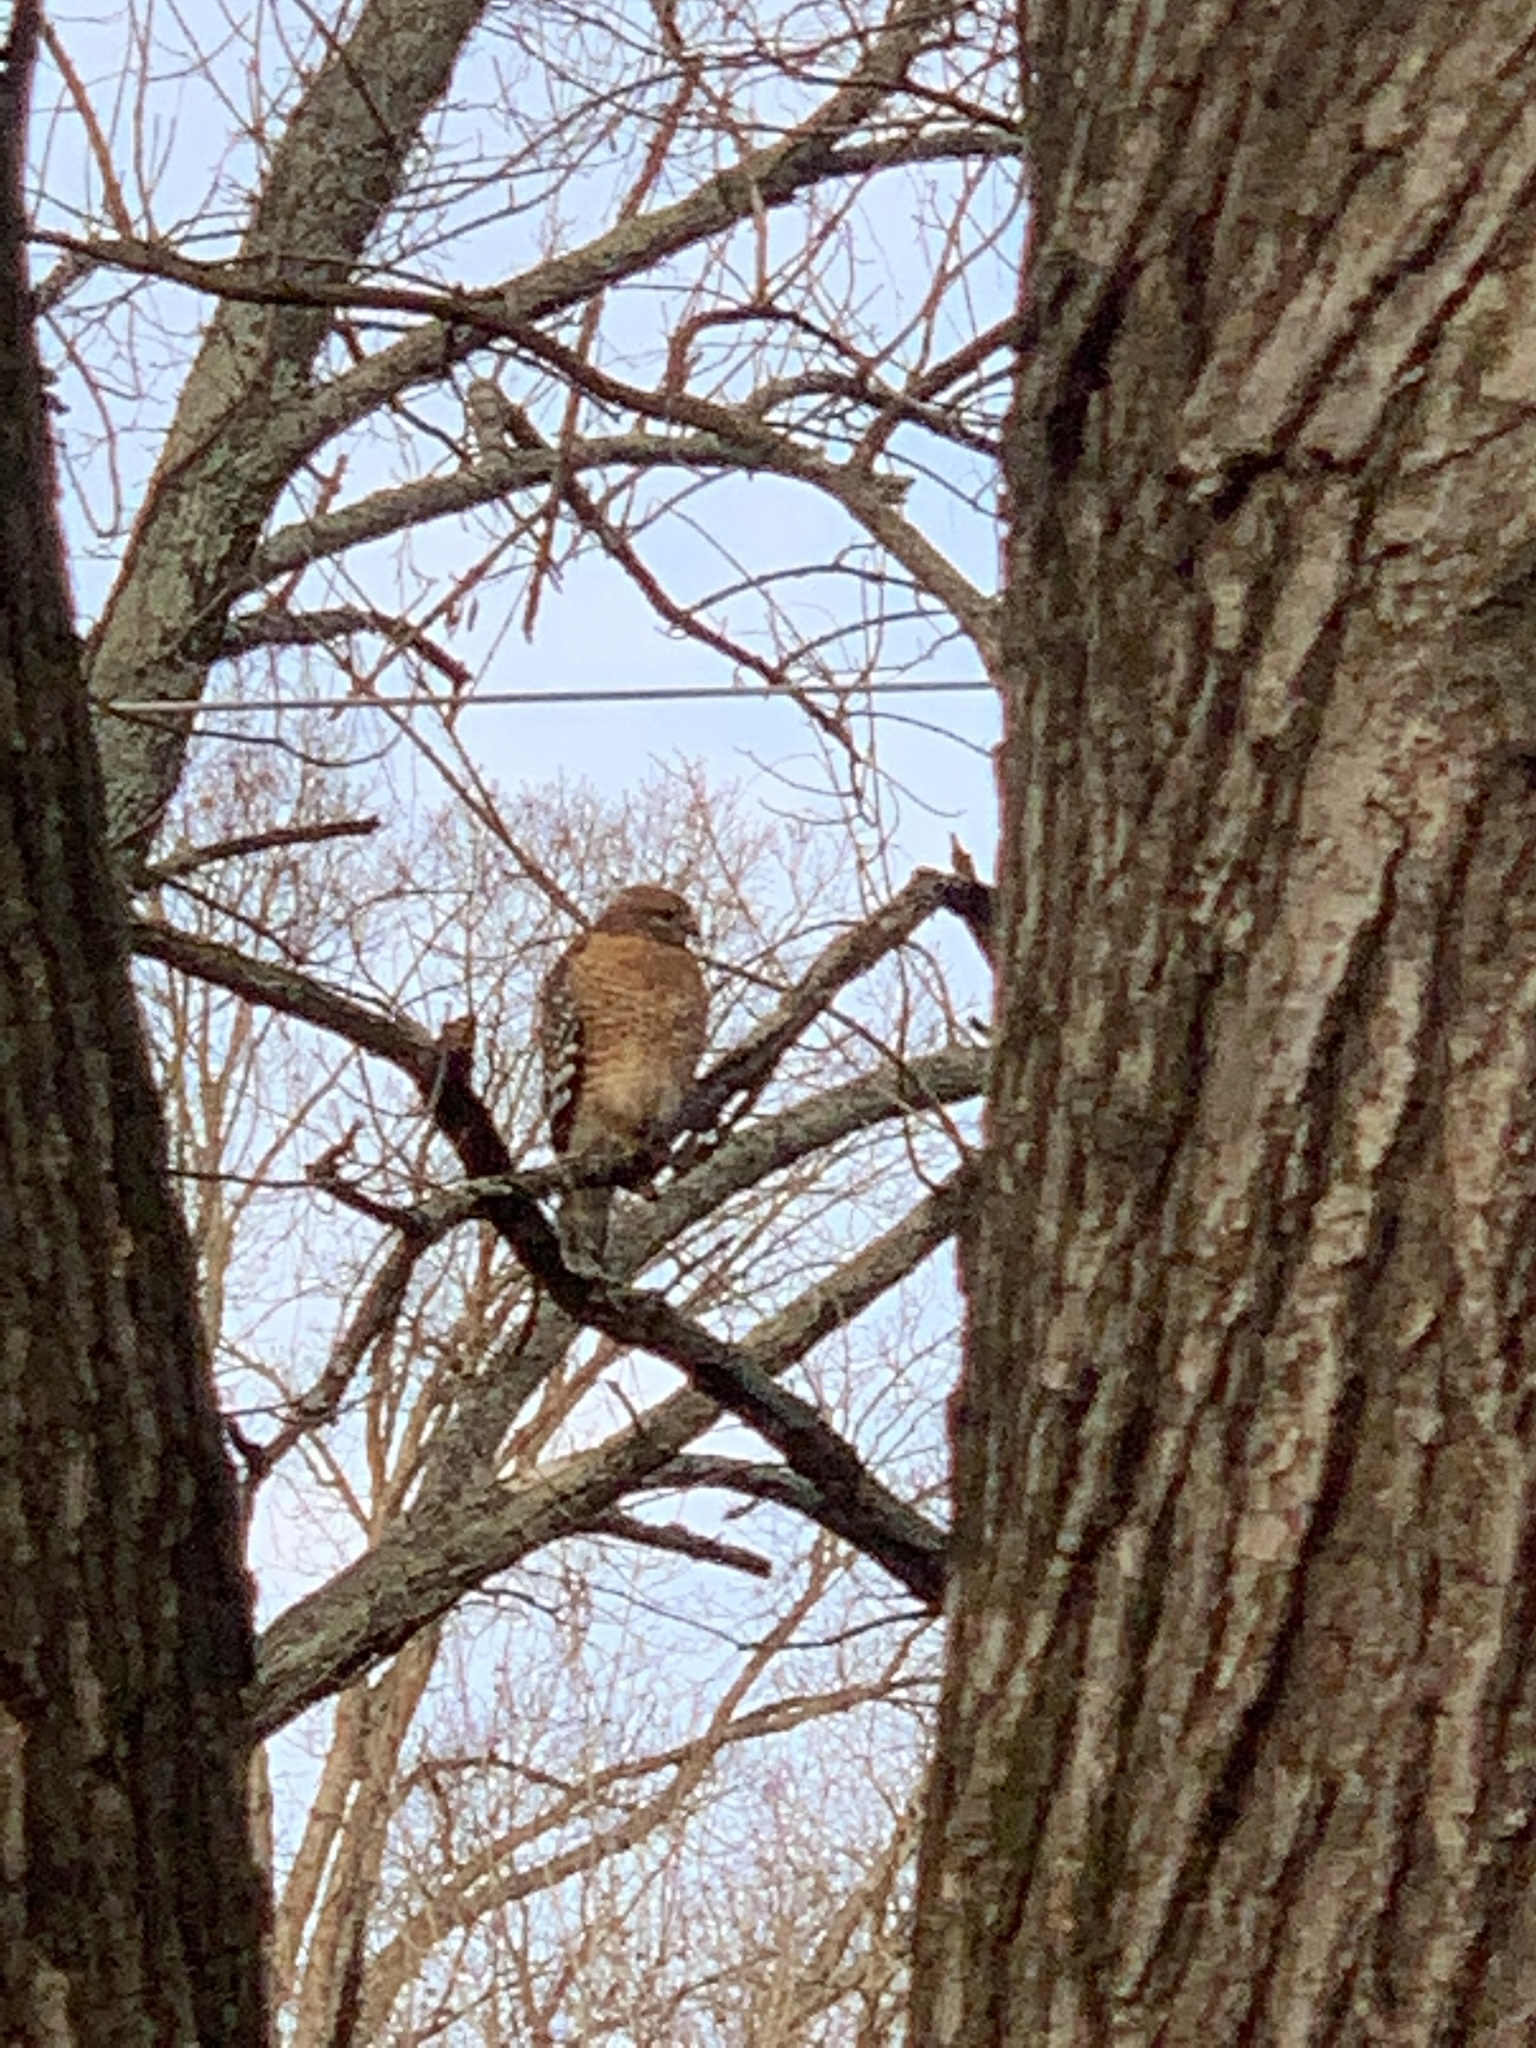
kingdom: Animalia
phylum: Chordata
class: Aves
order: Accipitriformes
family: Accipitridae
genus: Buteo
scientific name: Buteo lineatus
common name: Red-shouldered hawk
